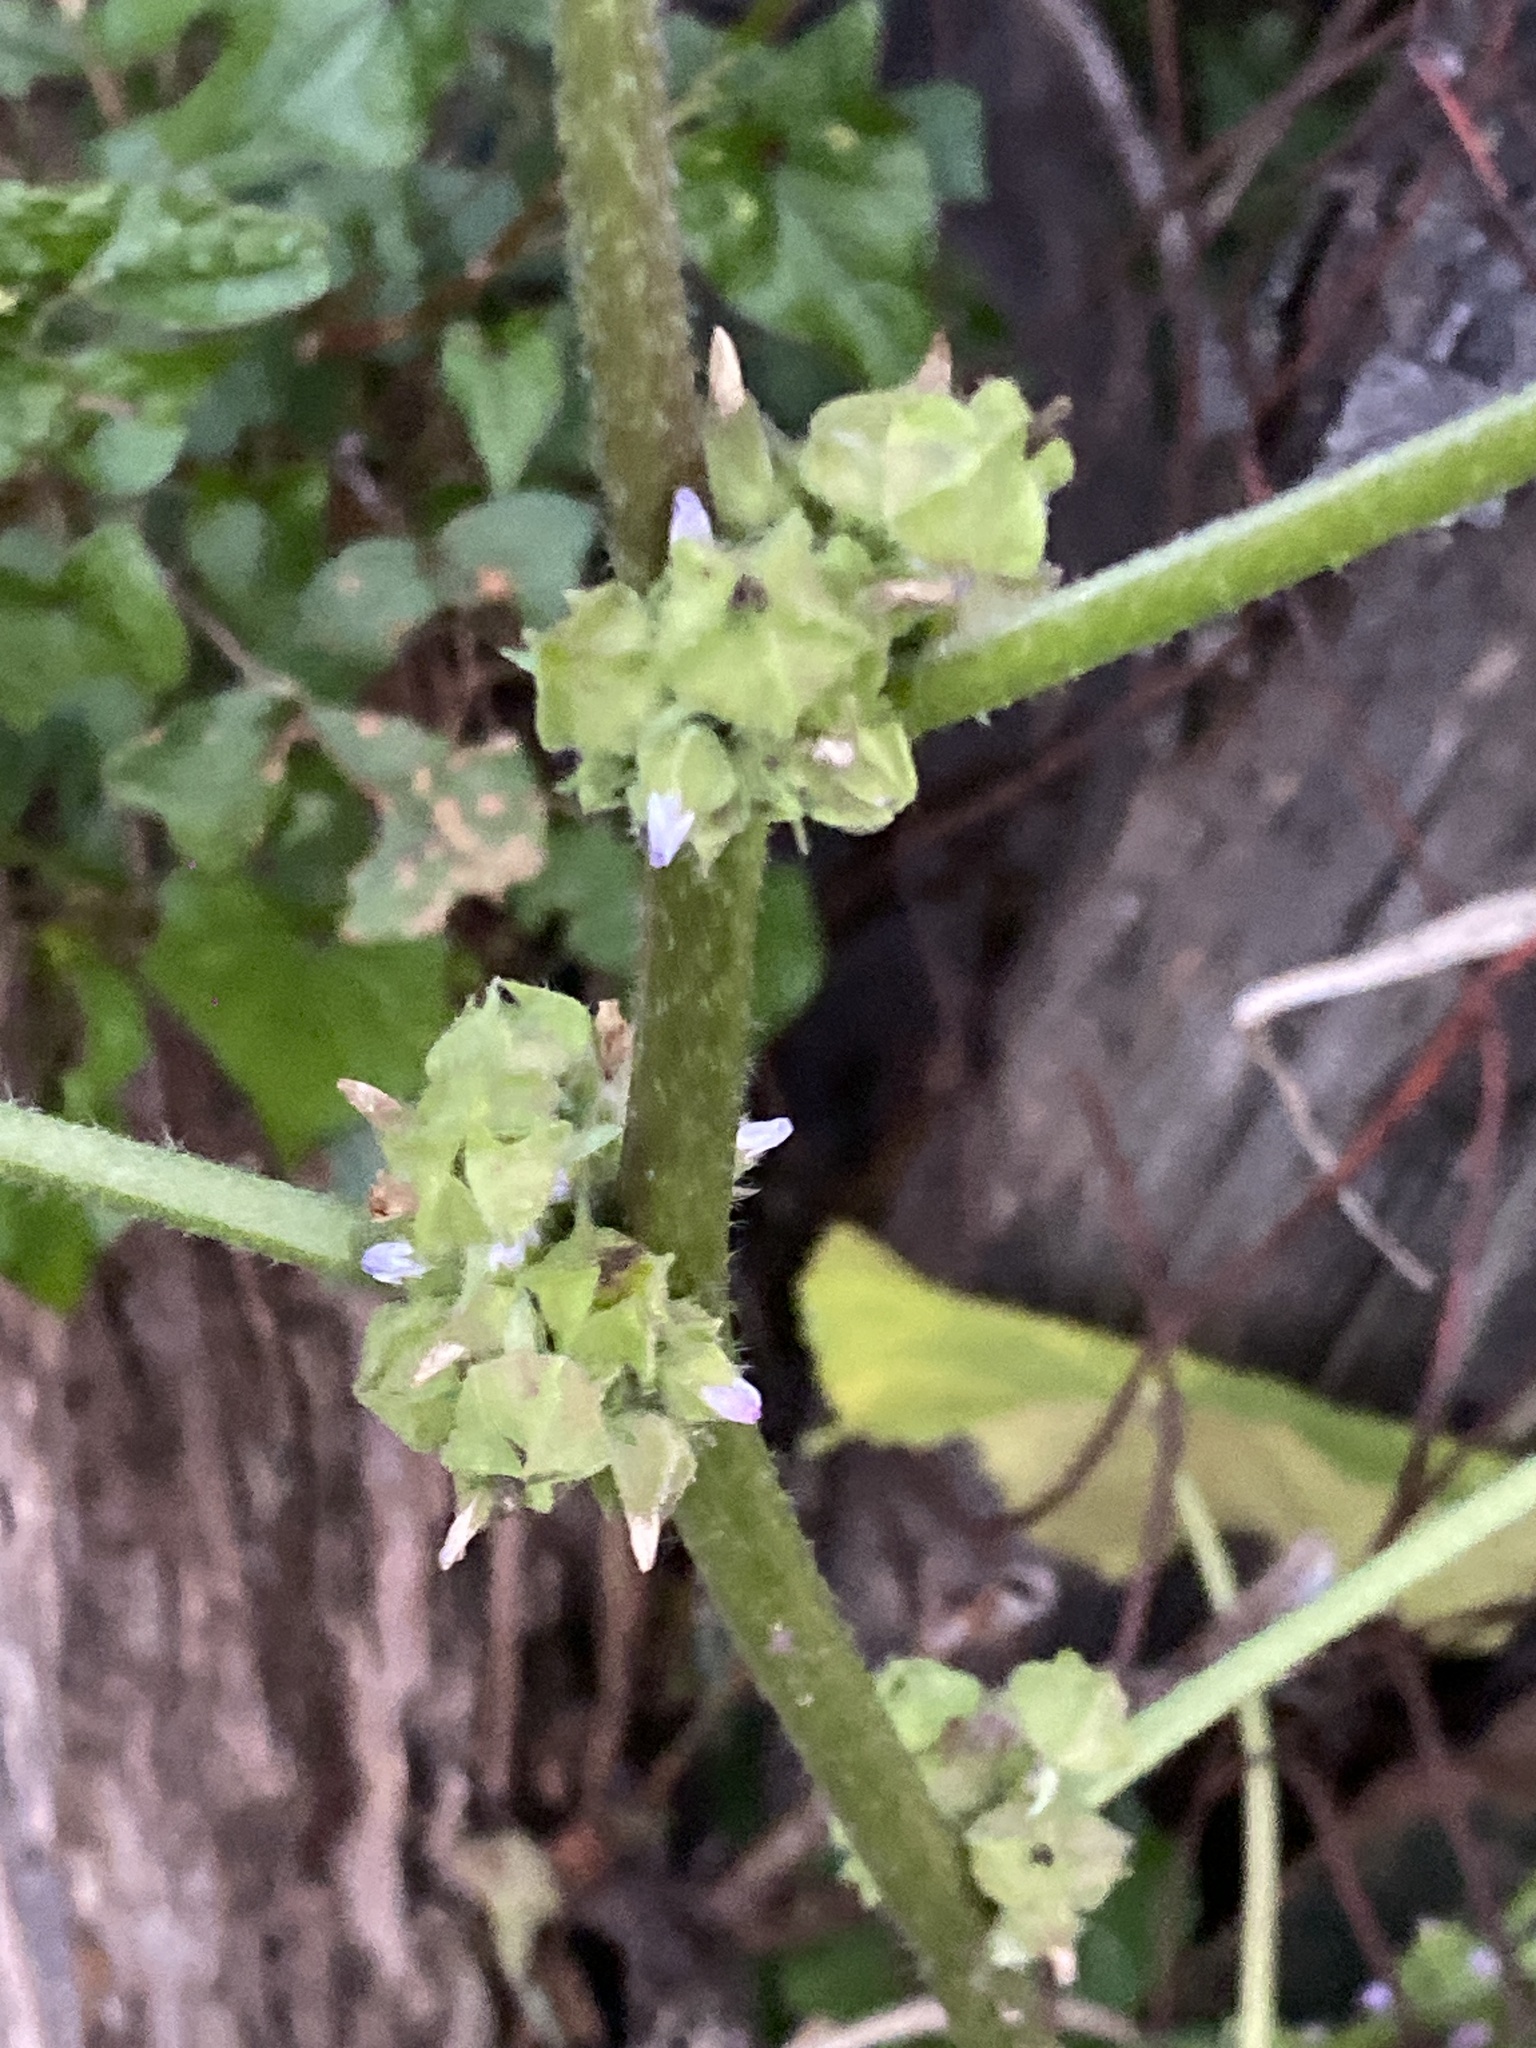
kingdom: Plantae
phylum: Tracheophyta
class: Magnoliopsida
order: Malvales
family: Malvaceae
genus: Malva
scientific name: Malva verticillata
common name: Chinese mallow
